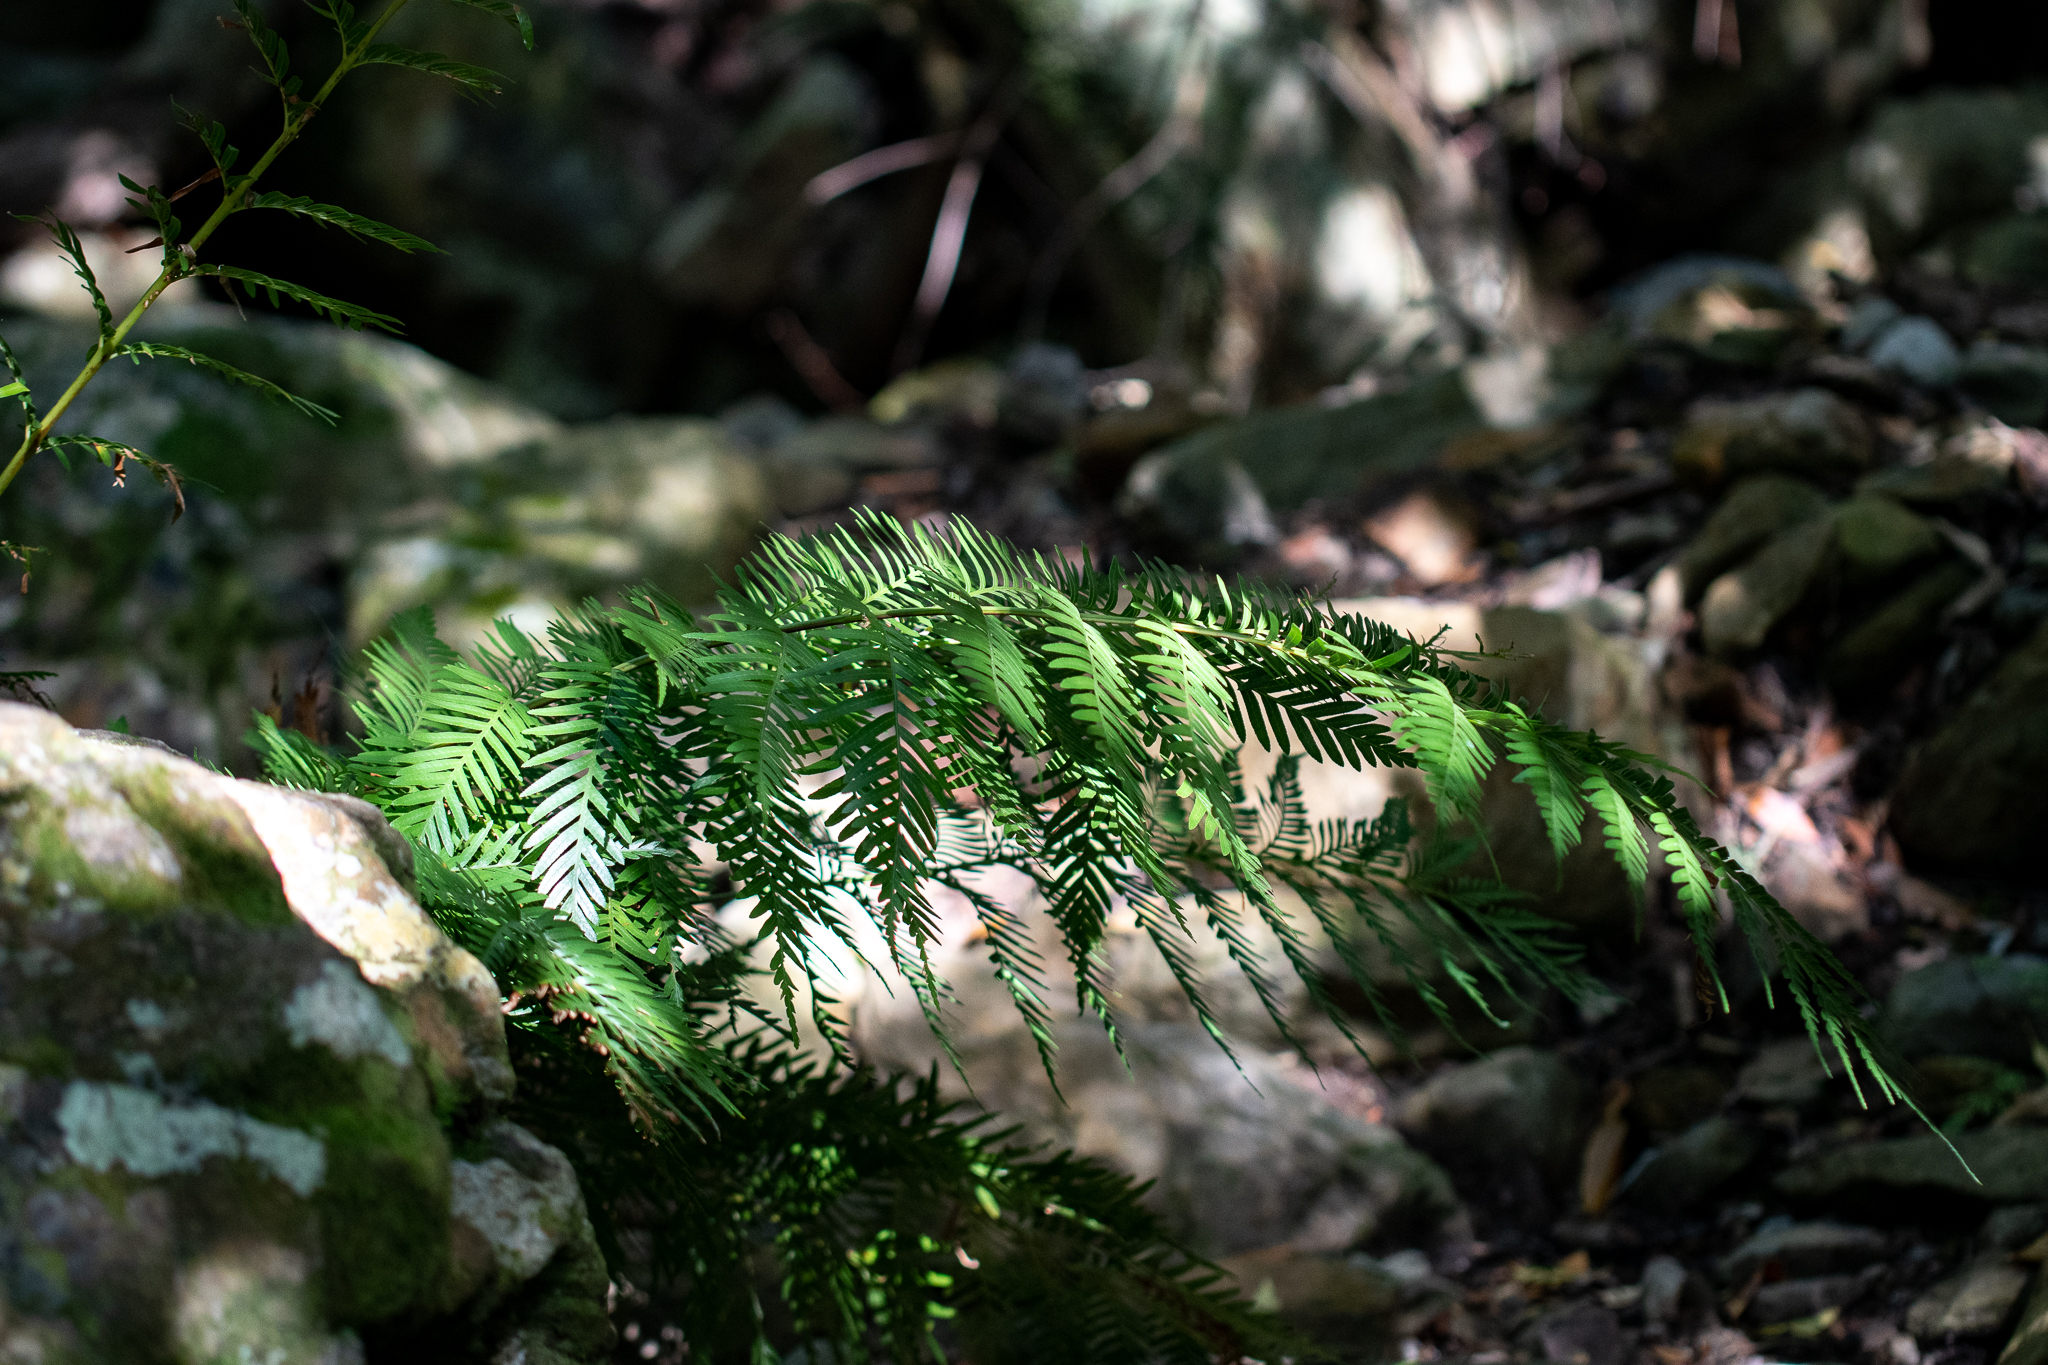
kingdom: Plantae
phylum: Tracheophyta
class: Polypodiopsida
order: Osmundales
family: Osmundaceae
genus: Todea
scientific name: Todea barbara
